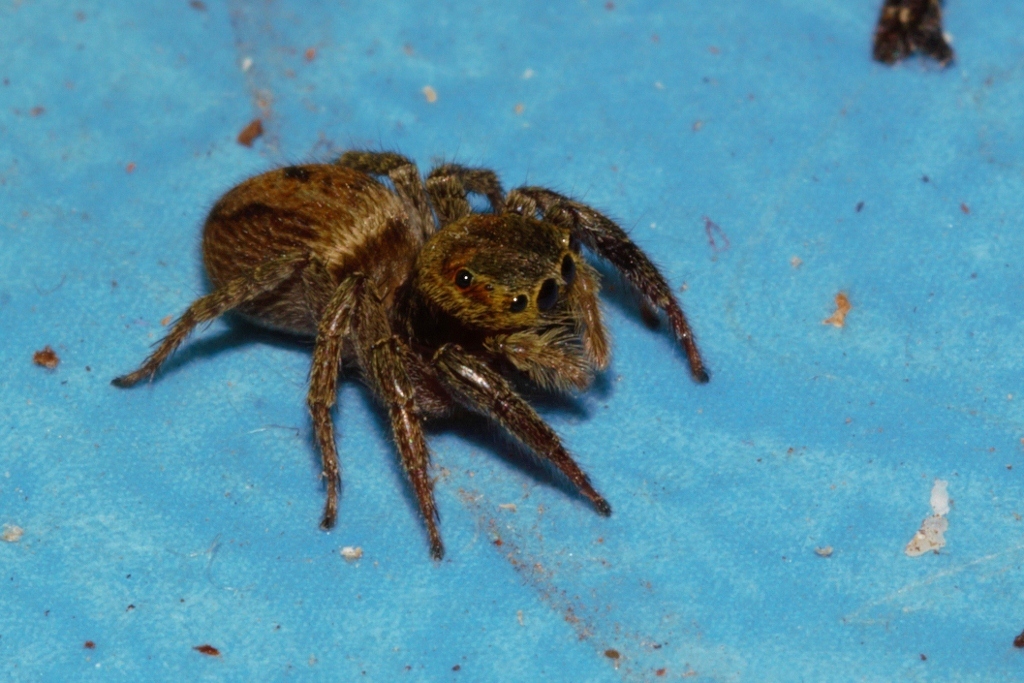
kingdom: Animalia
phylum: Arthropoda
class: Arachnida
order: Araneae
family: Salticidae
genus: Hasarius
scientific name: Hasarius adansoni
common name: Jumping spider
